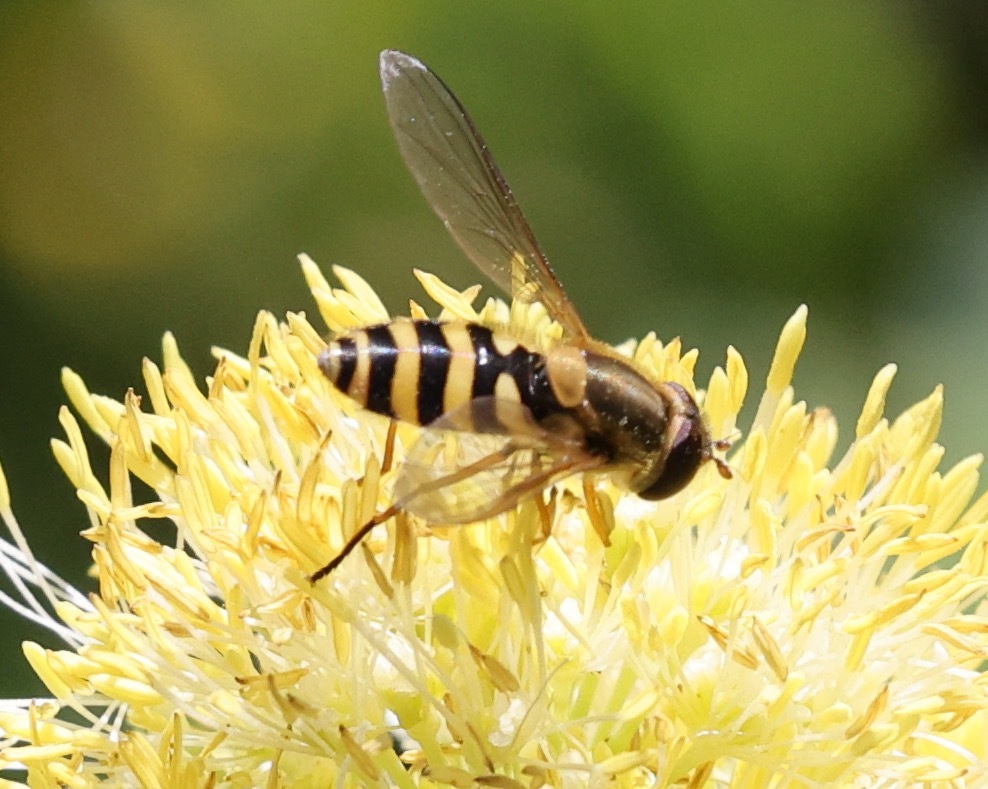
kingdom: Animalia
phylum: Arthropoda
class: Insecta
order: Diptera
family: Syrphidae
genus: Syrphus
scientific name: Syrphus ribesii
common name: Common flower fly
